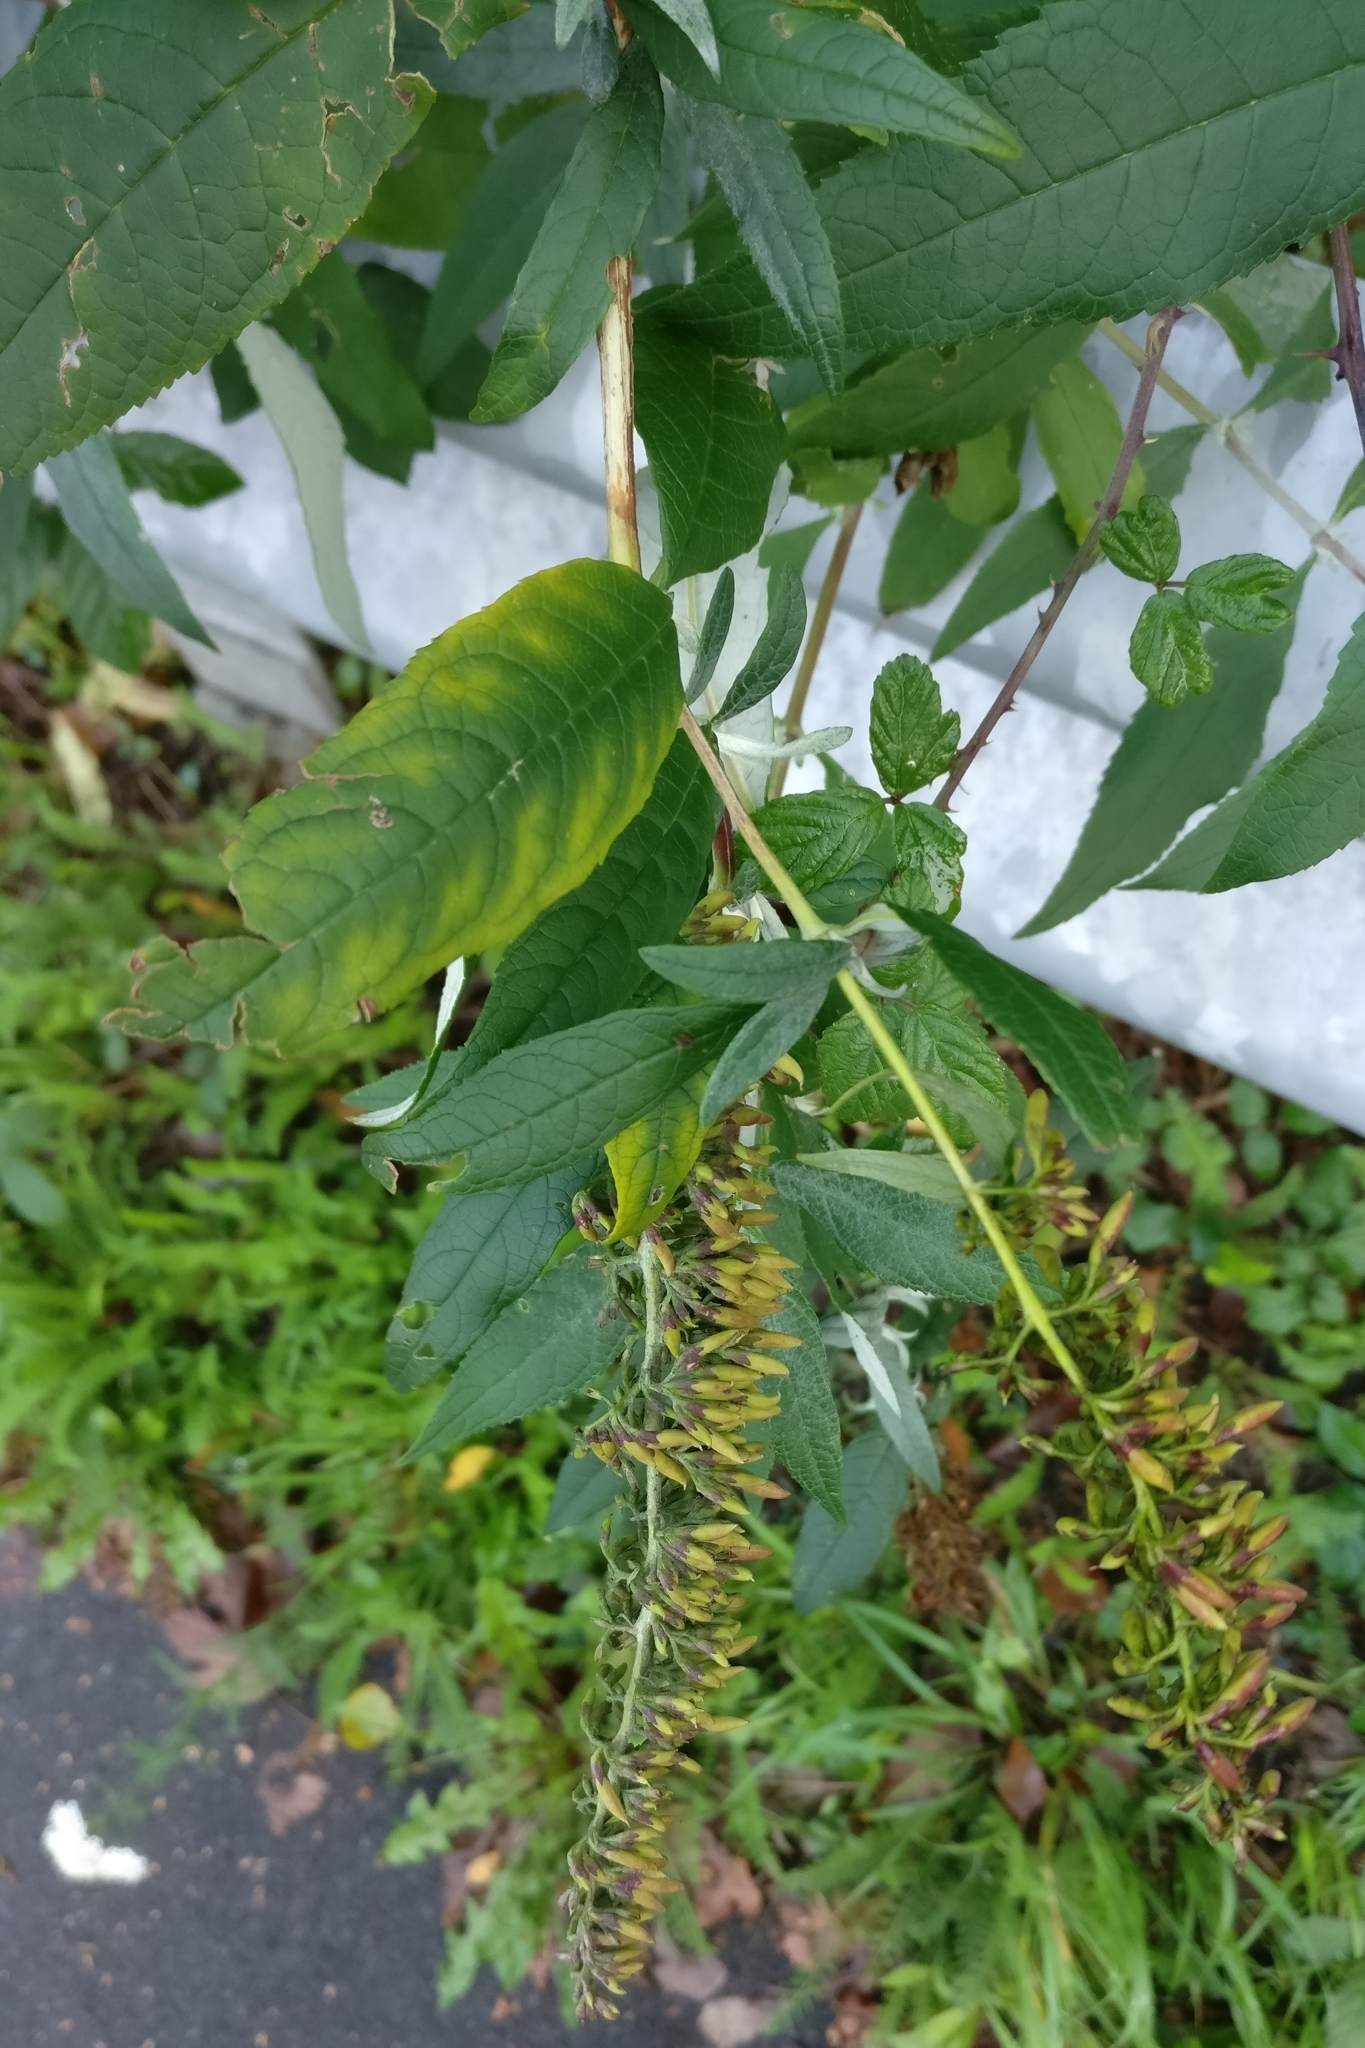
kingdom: Plantae
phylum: Tracheophyta
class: Magnoliopsida
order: Lamiales
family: Scrophulariaceae
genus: Buddleja
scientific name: Buddleja davidii
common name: Butterfly-bush
